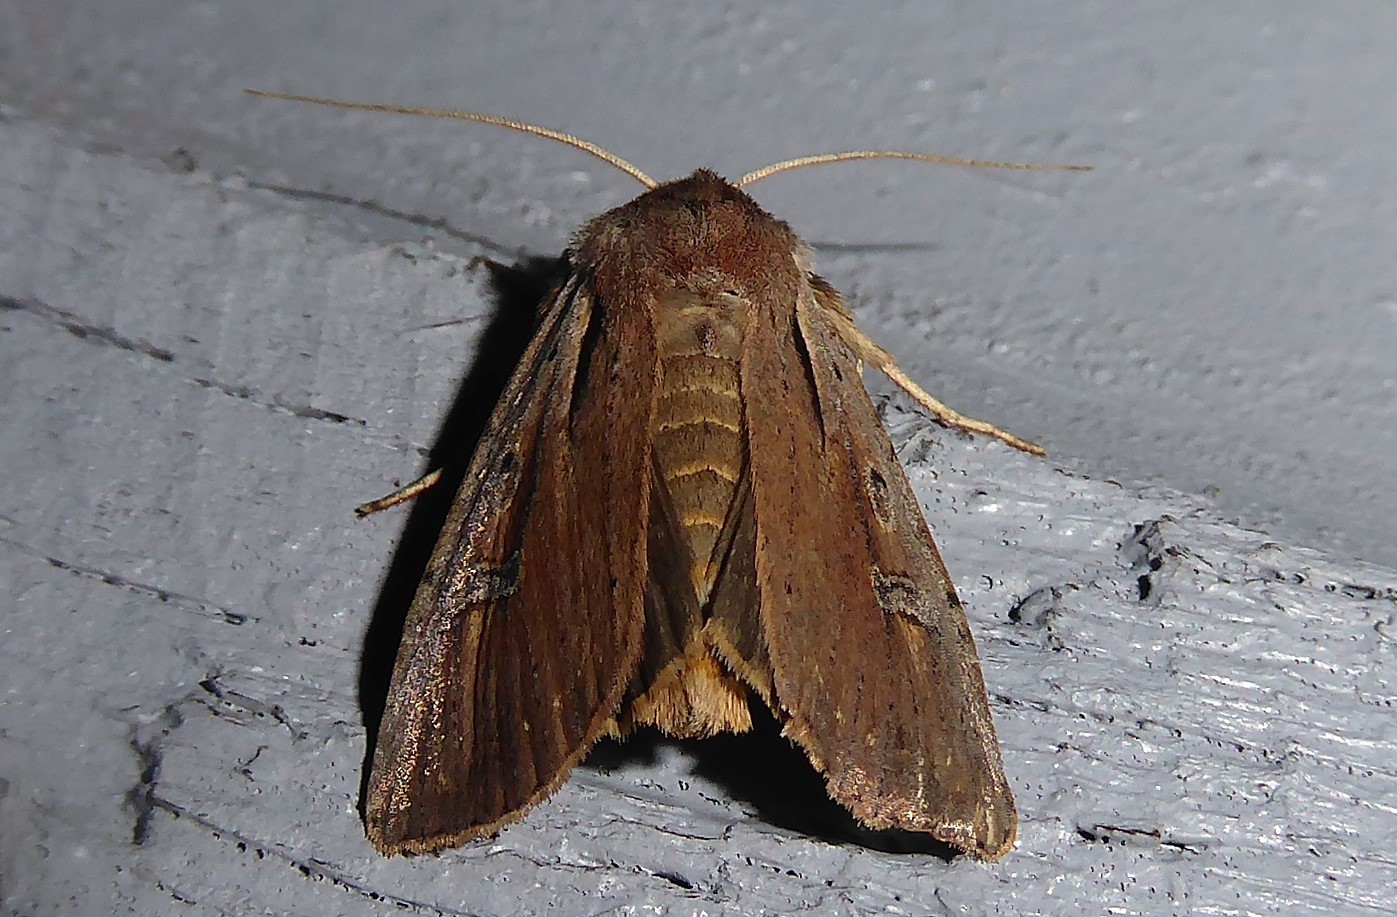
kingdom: Animalia
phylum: Arthropoda
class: Insecta
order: Lepidoptera
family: Noctuidae
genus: Ichneutica
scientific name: Ichneutica atristriga
